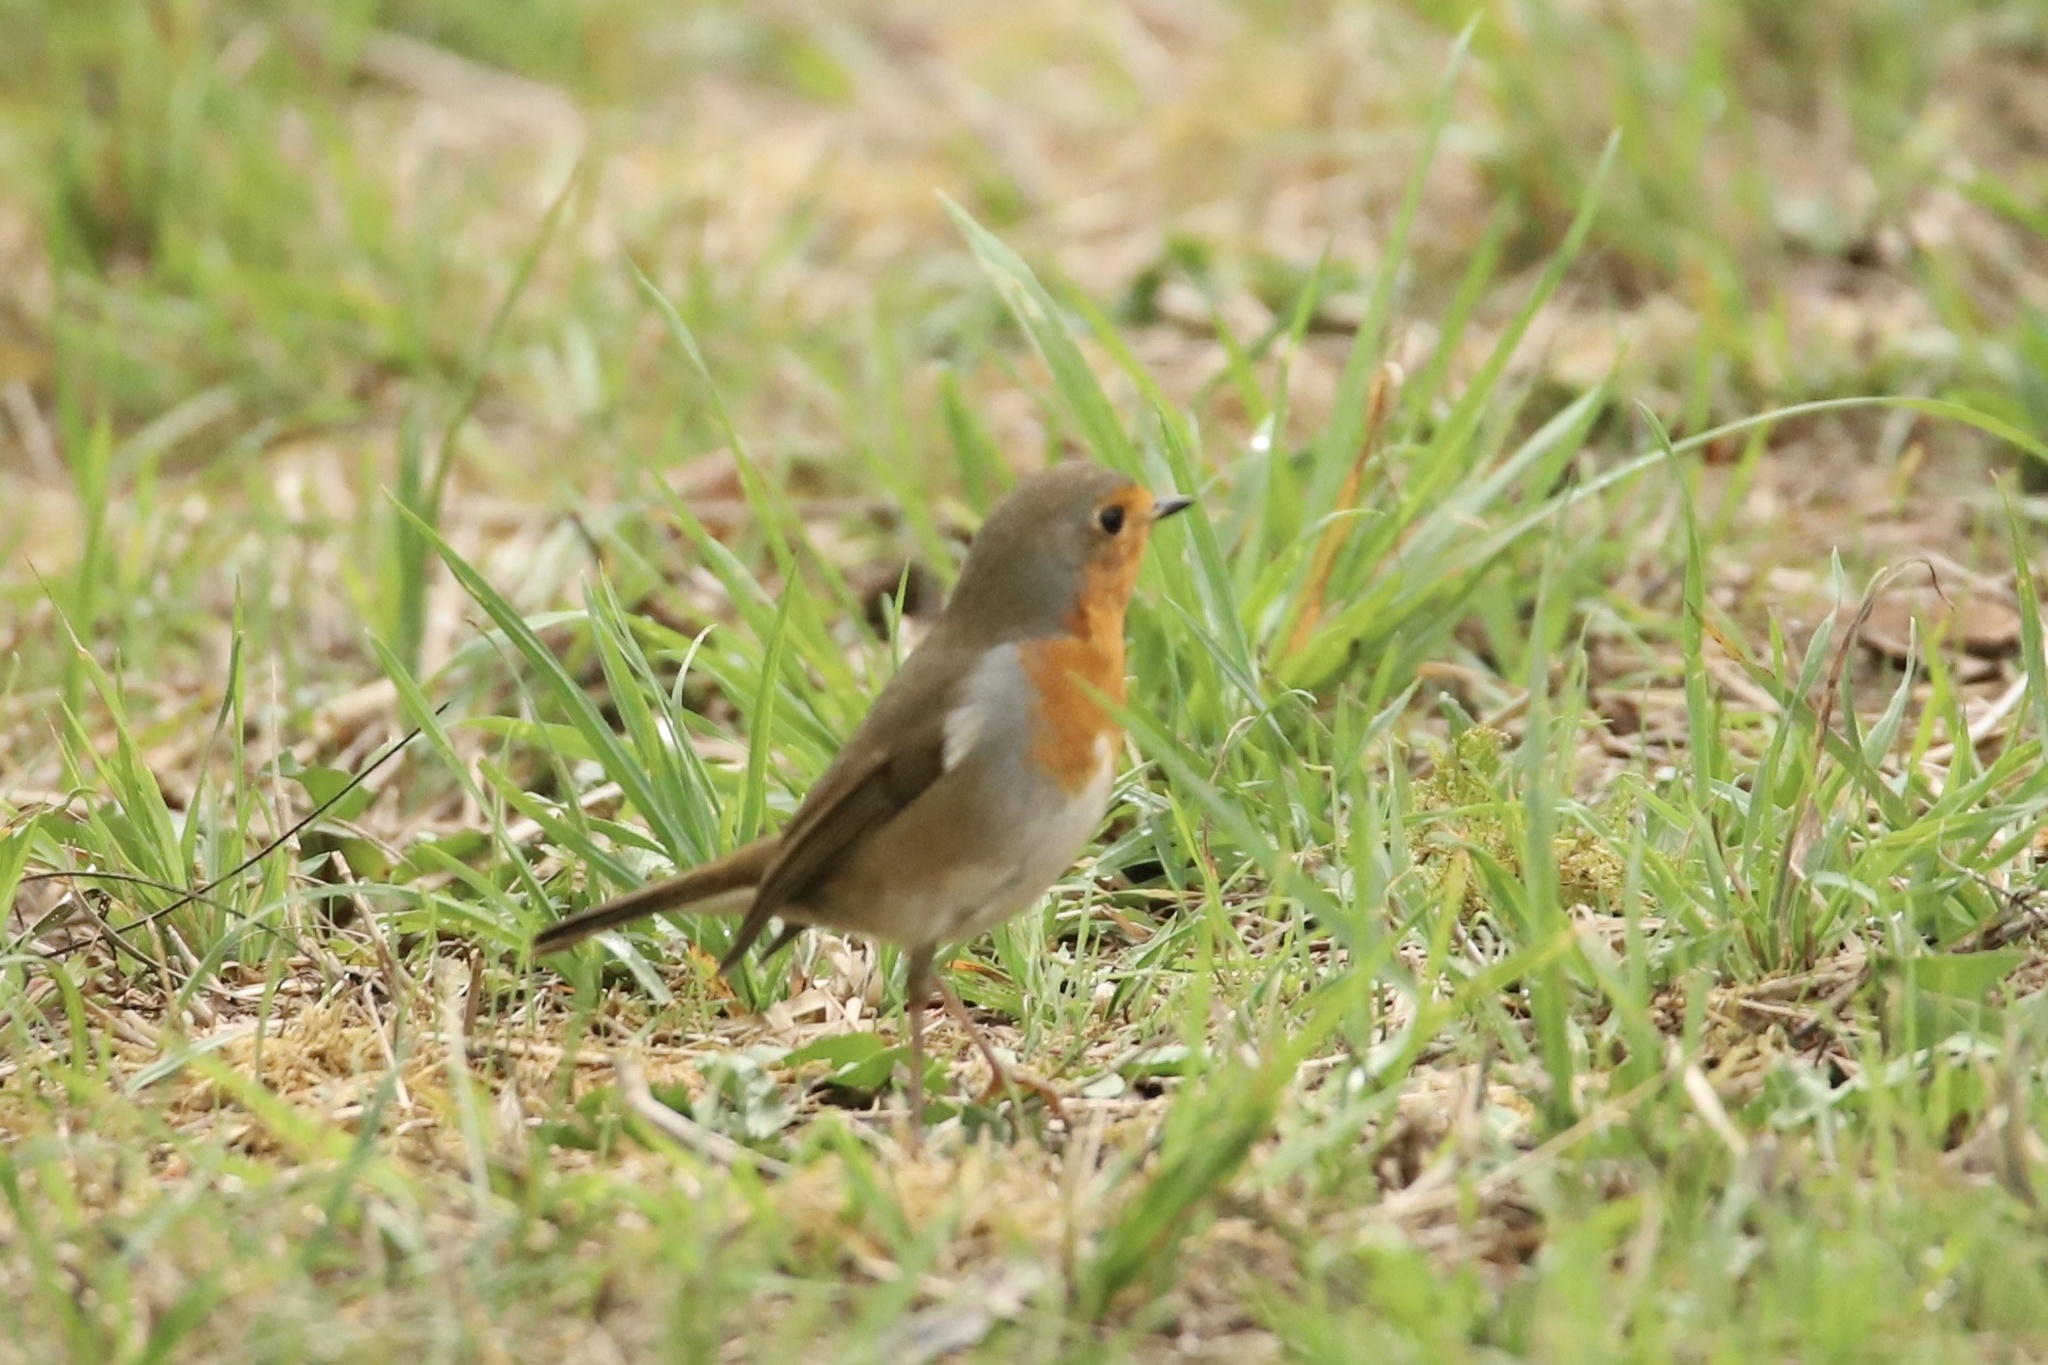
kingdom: Animalia
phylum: Chordata
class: Aves
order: Passeriformes
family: Muscicapidae
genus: Erithacus
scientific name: Erithacus rubecula
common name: European robin
